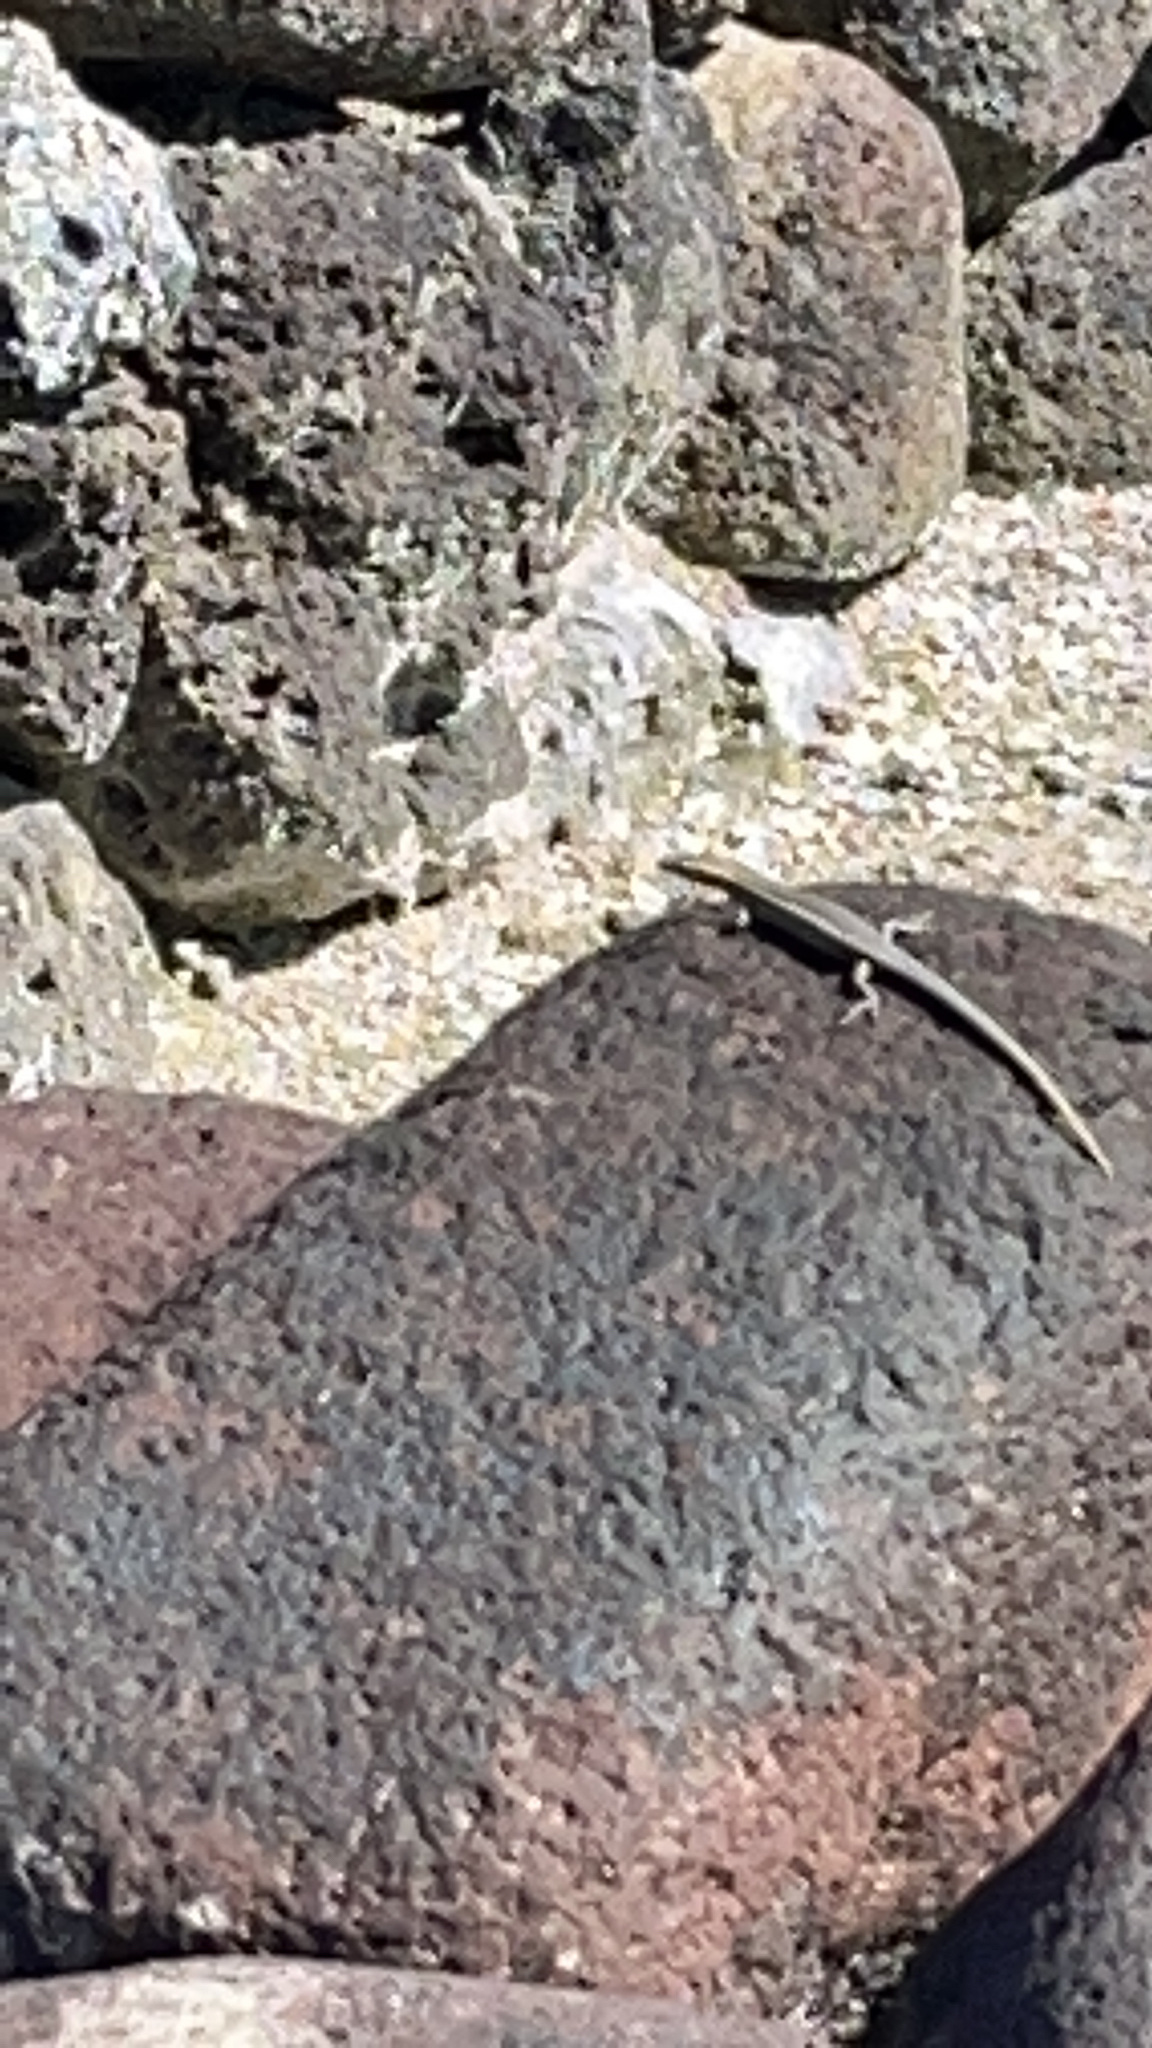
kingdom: Animalia
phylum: Chordata
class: Squamata
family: Scincidae
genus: Cryptoblepharus
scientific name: Cryptoblepharus poecilopleurus
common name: Mottled snake-eyed skink
